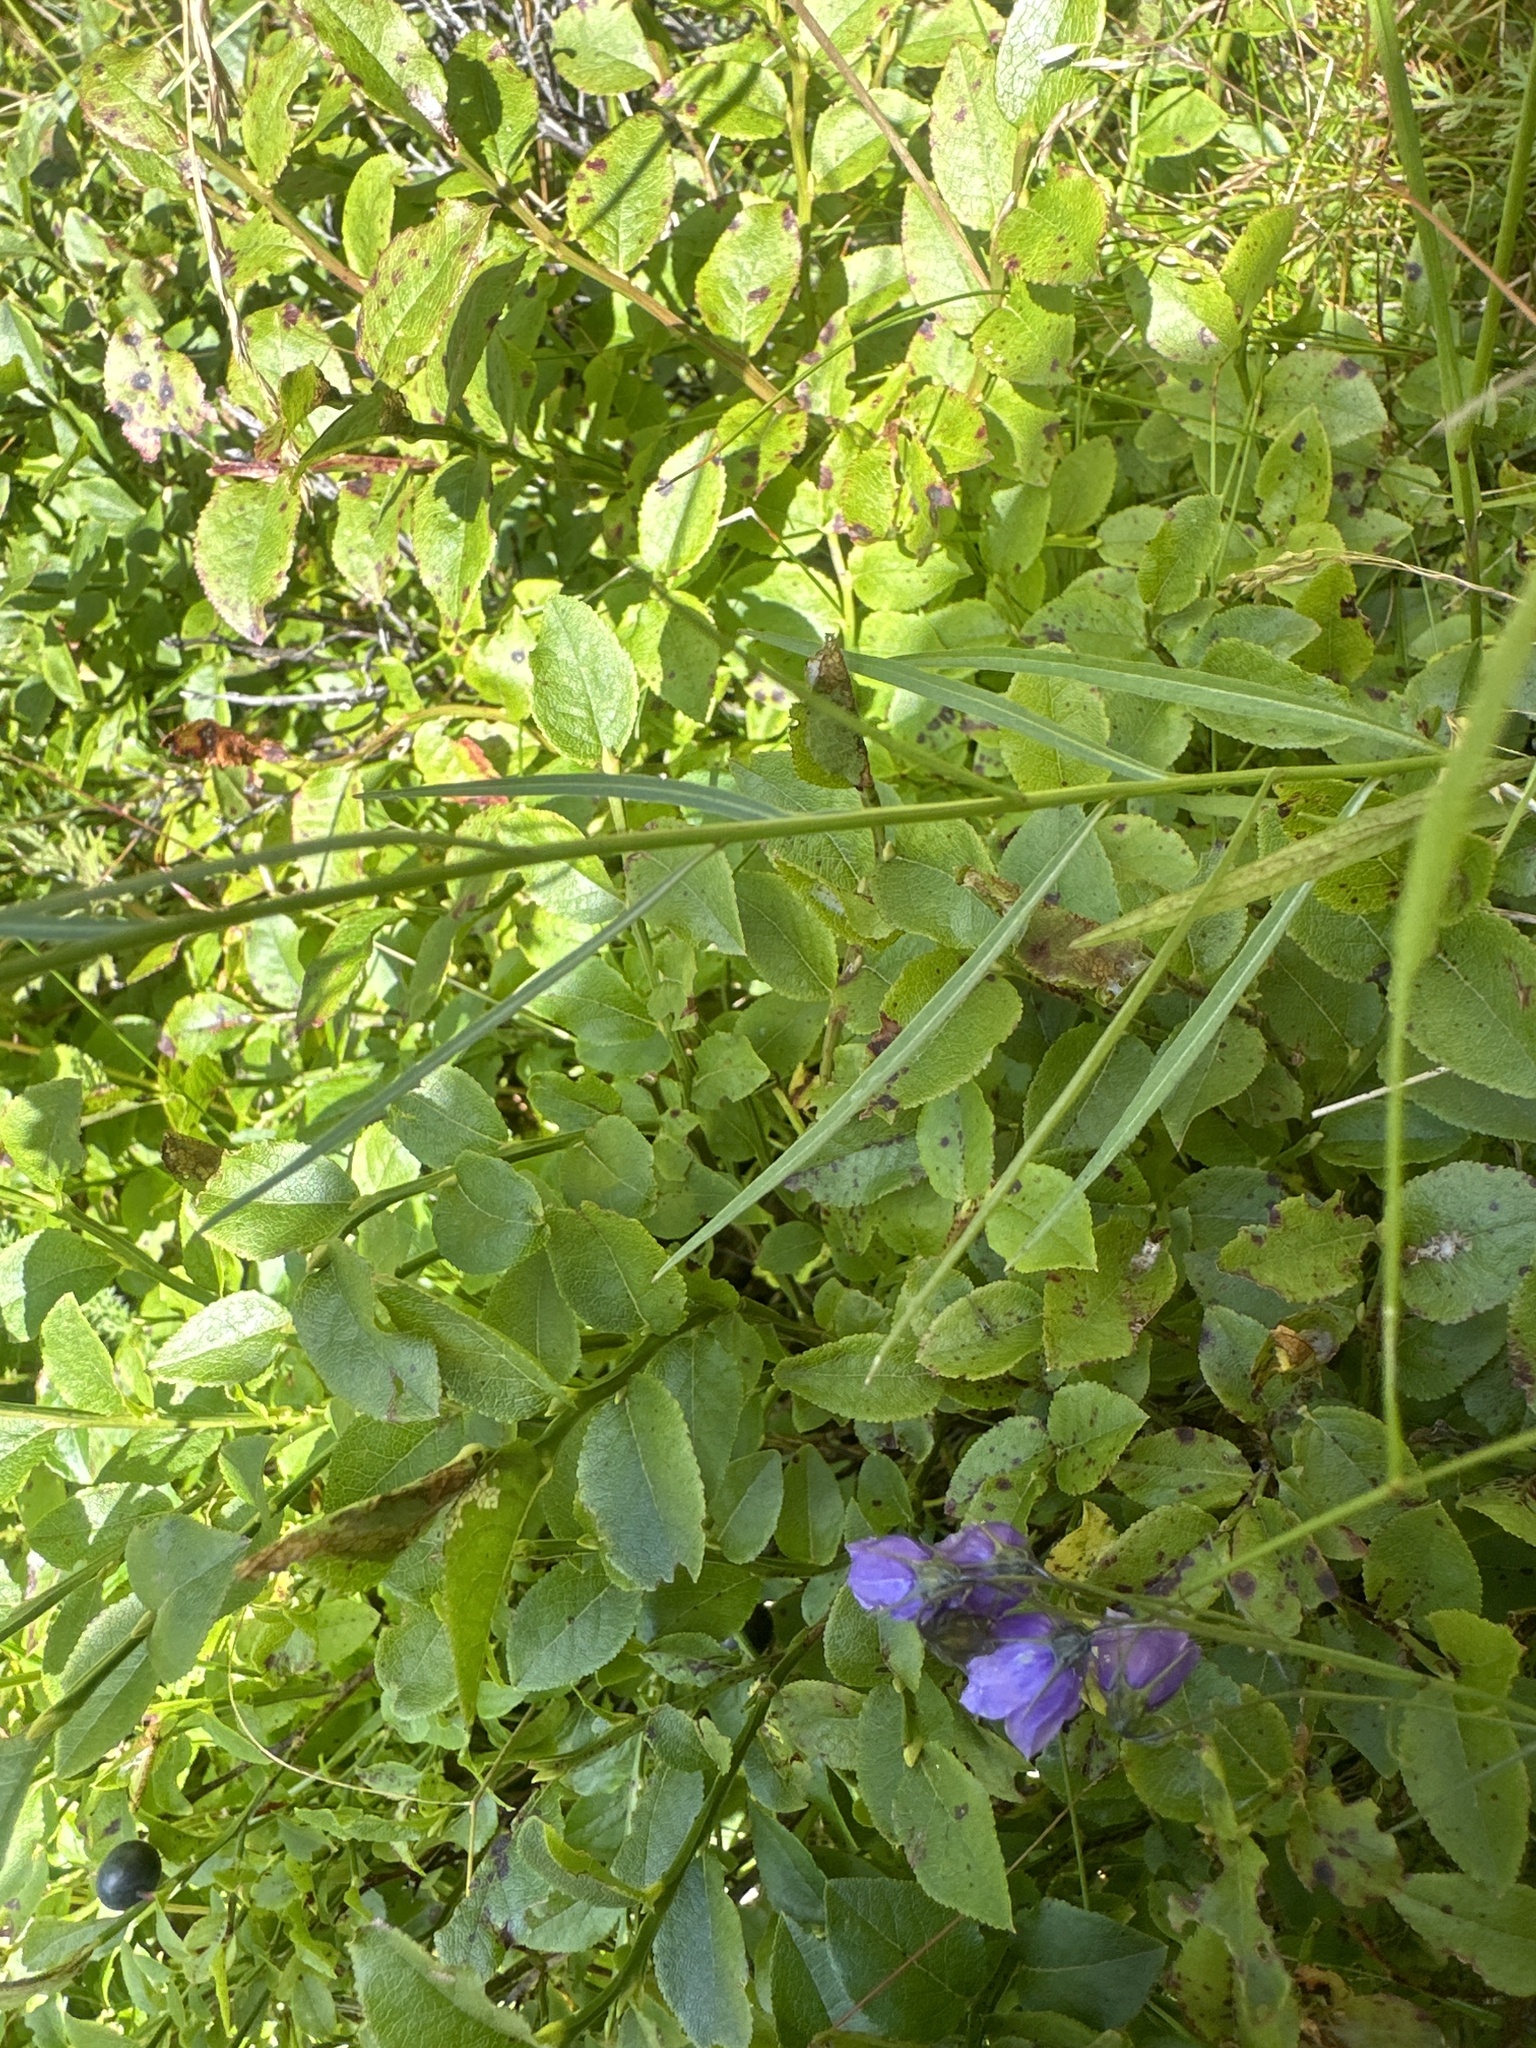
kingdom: Plantae
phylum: Tracheophyta
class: Magnoliopsida
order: Asterales
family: Campanulaceae
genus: Campanula
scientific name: Campanula scheuchzeri
